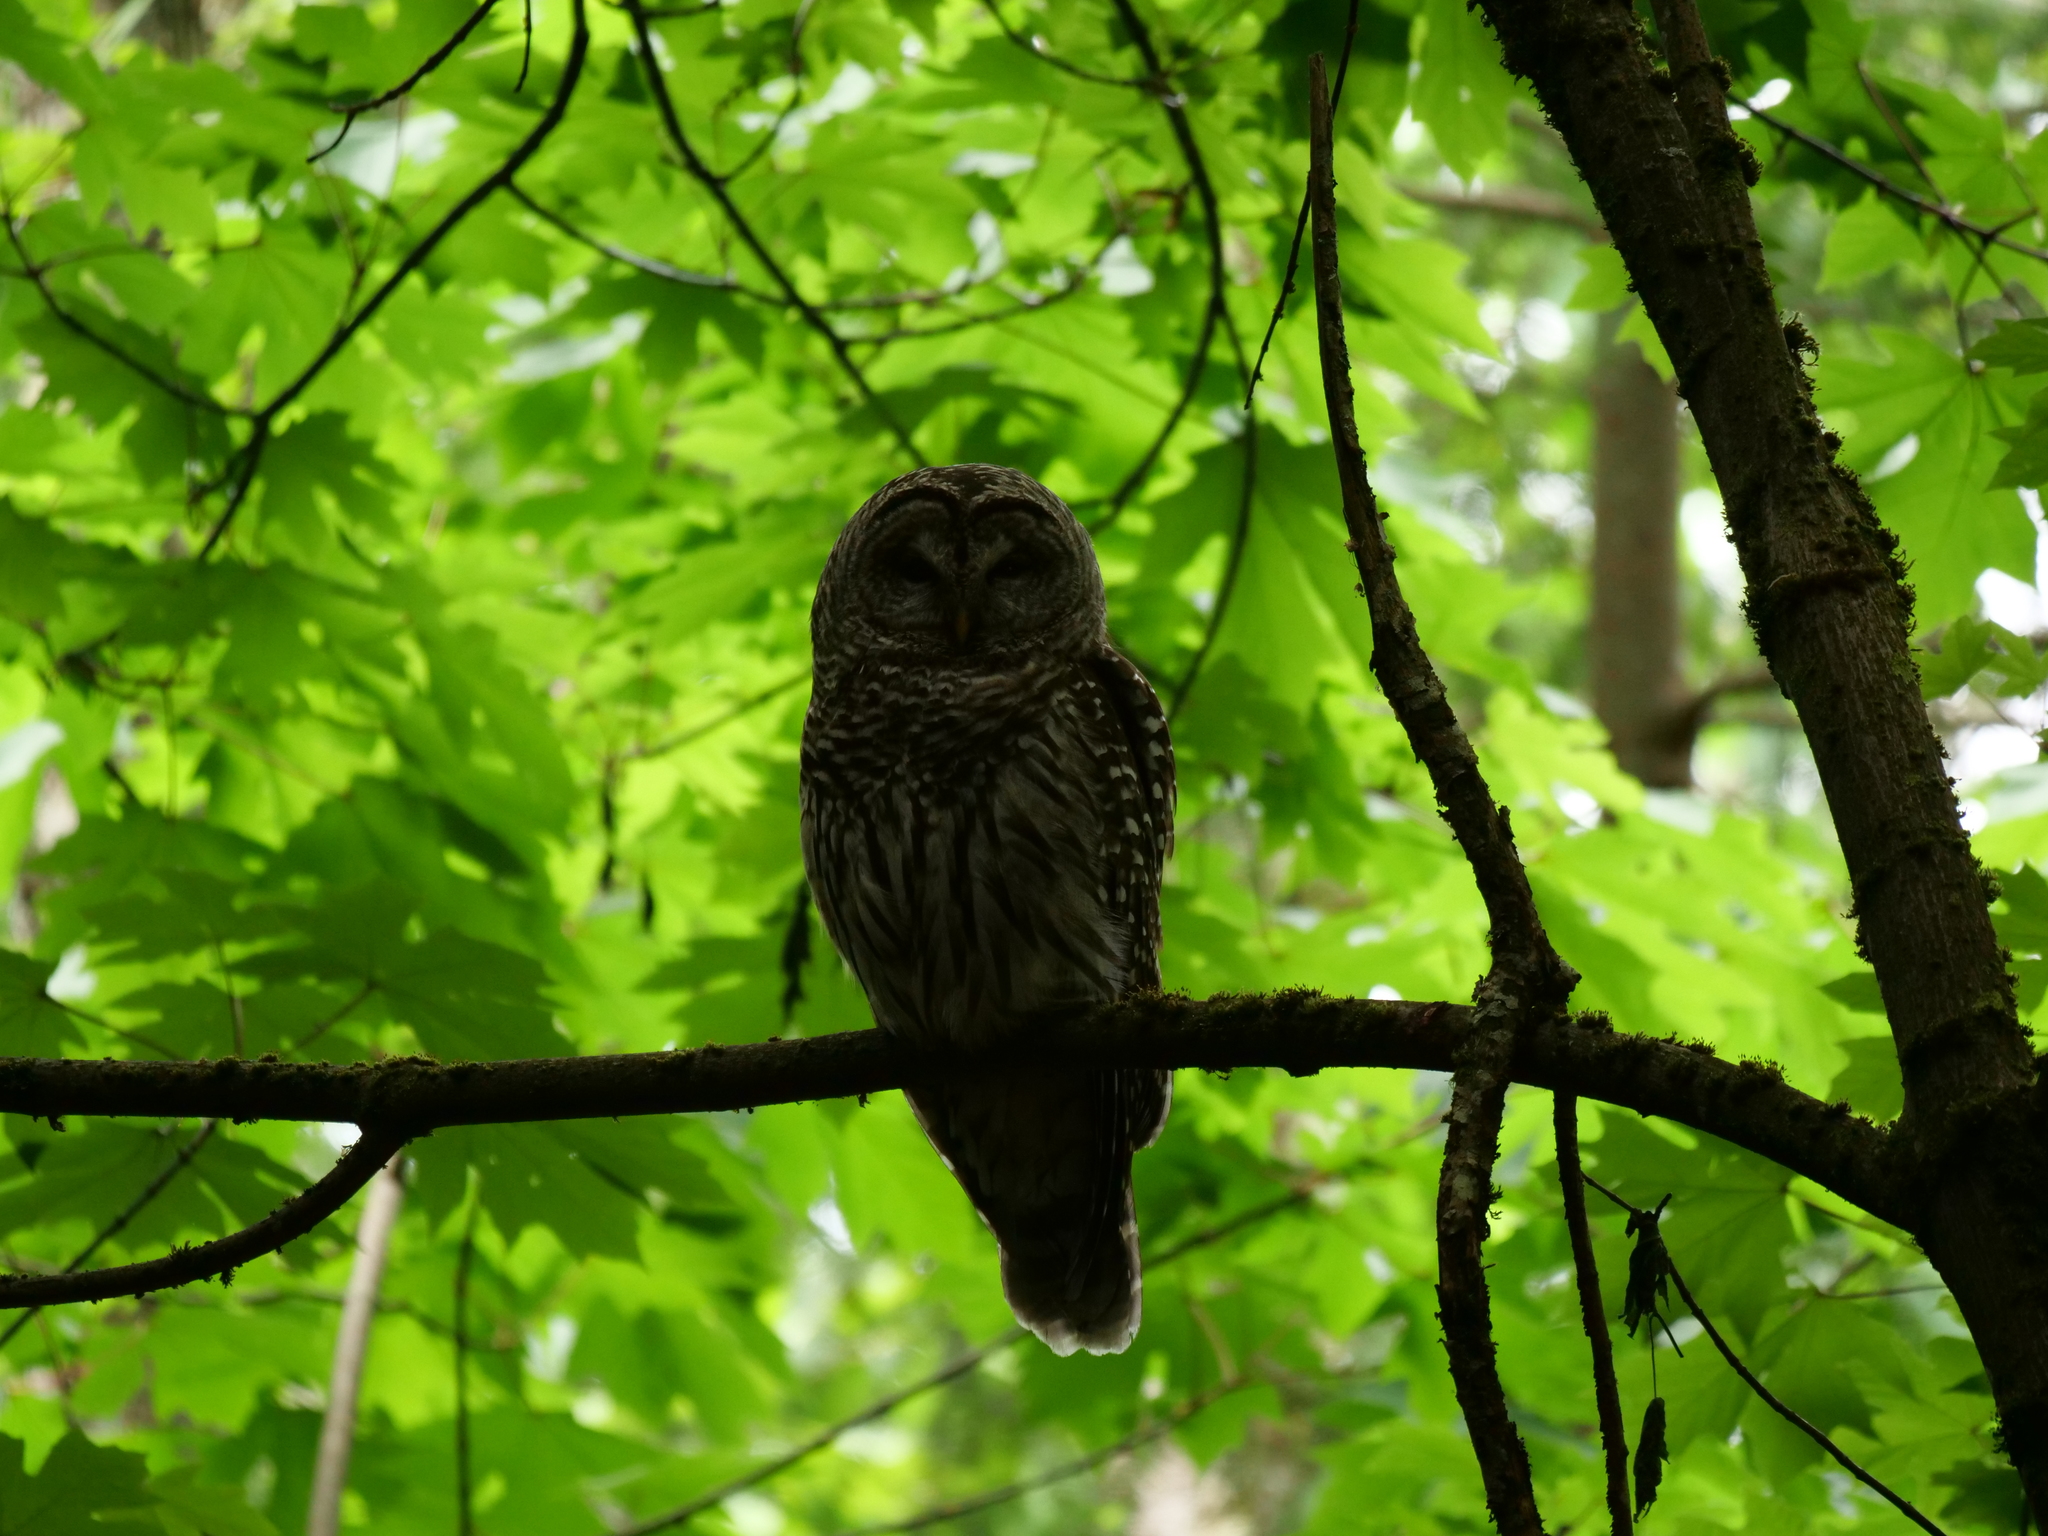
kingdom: Animalia
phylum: Chordata
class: Aves
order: Strigiformes
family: Strigidae
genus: Strix
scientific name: Strix varia
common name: Barred owl
